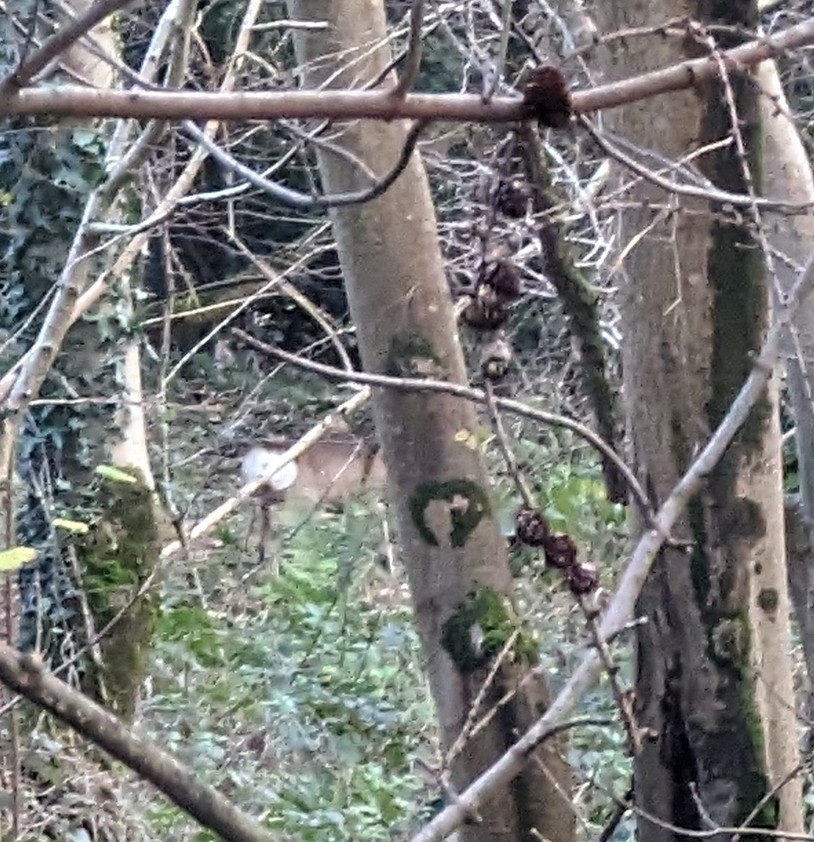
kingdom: Animalia
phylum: Chordata
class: Mammalia
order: Artiodactyla
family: Cervidae
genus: Capreolus
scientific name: Capreolus capreolus
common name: Western roe deer
